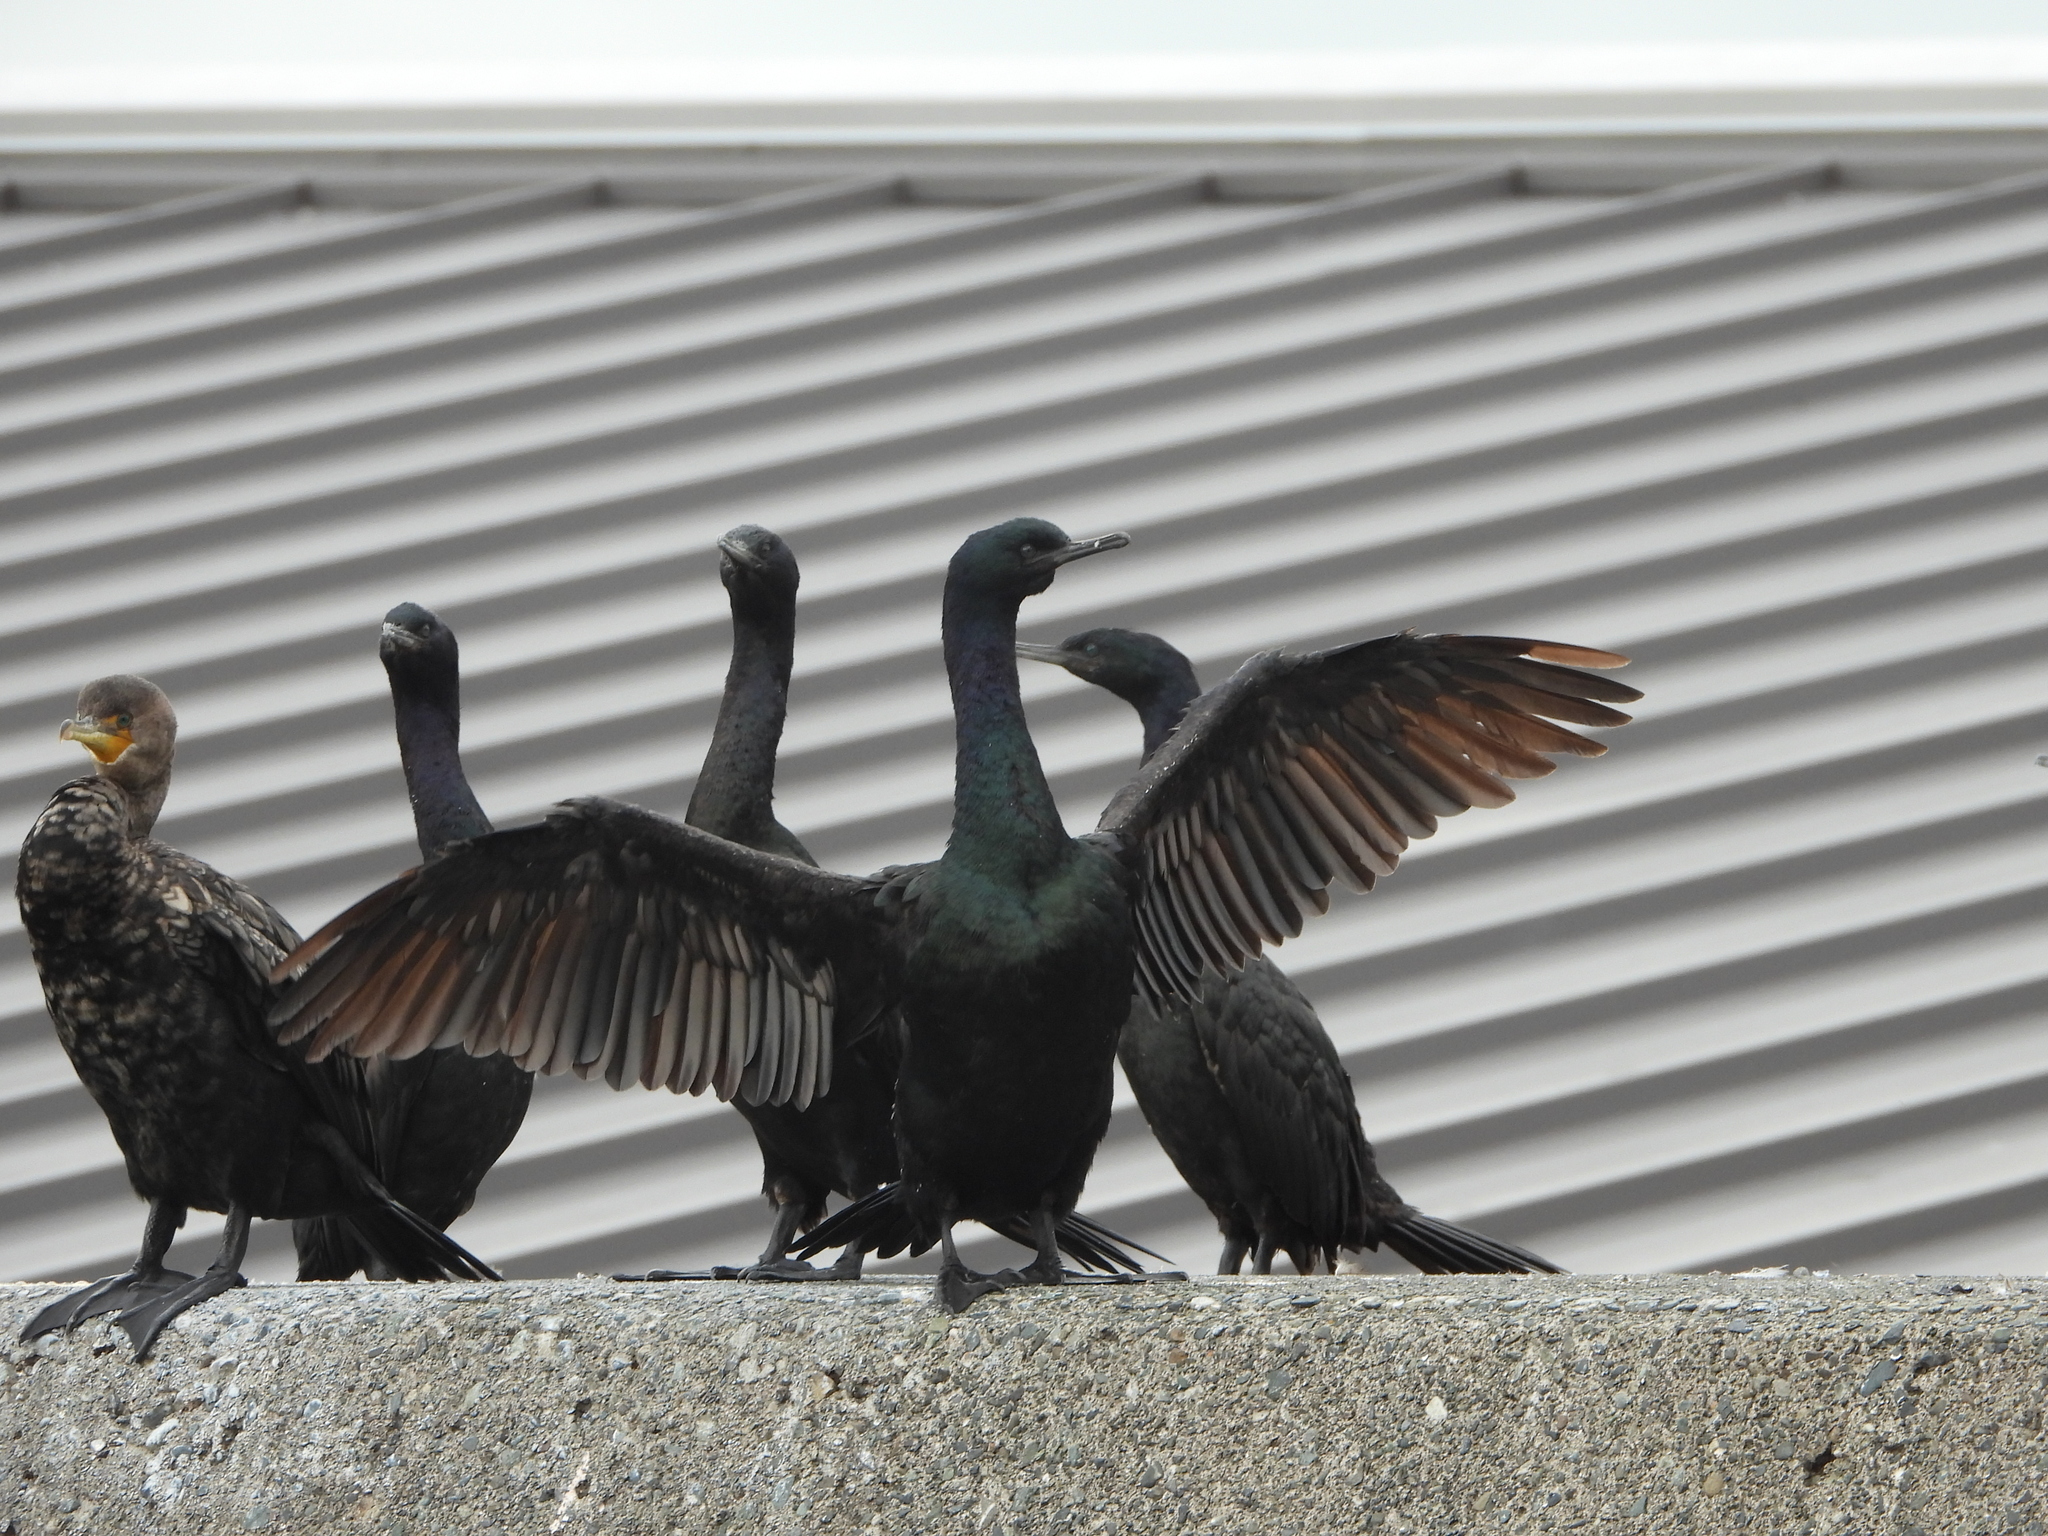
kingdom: Animalia
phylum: Chordata
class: Aves
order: Suliformes
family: Phalacrocoracidae
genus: Phalacrocorax
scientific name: Phalacrocorax pelagicus
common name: Pelagic cormorant
